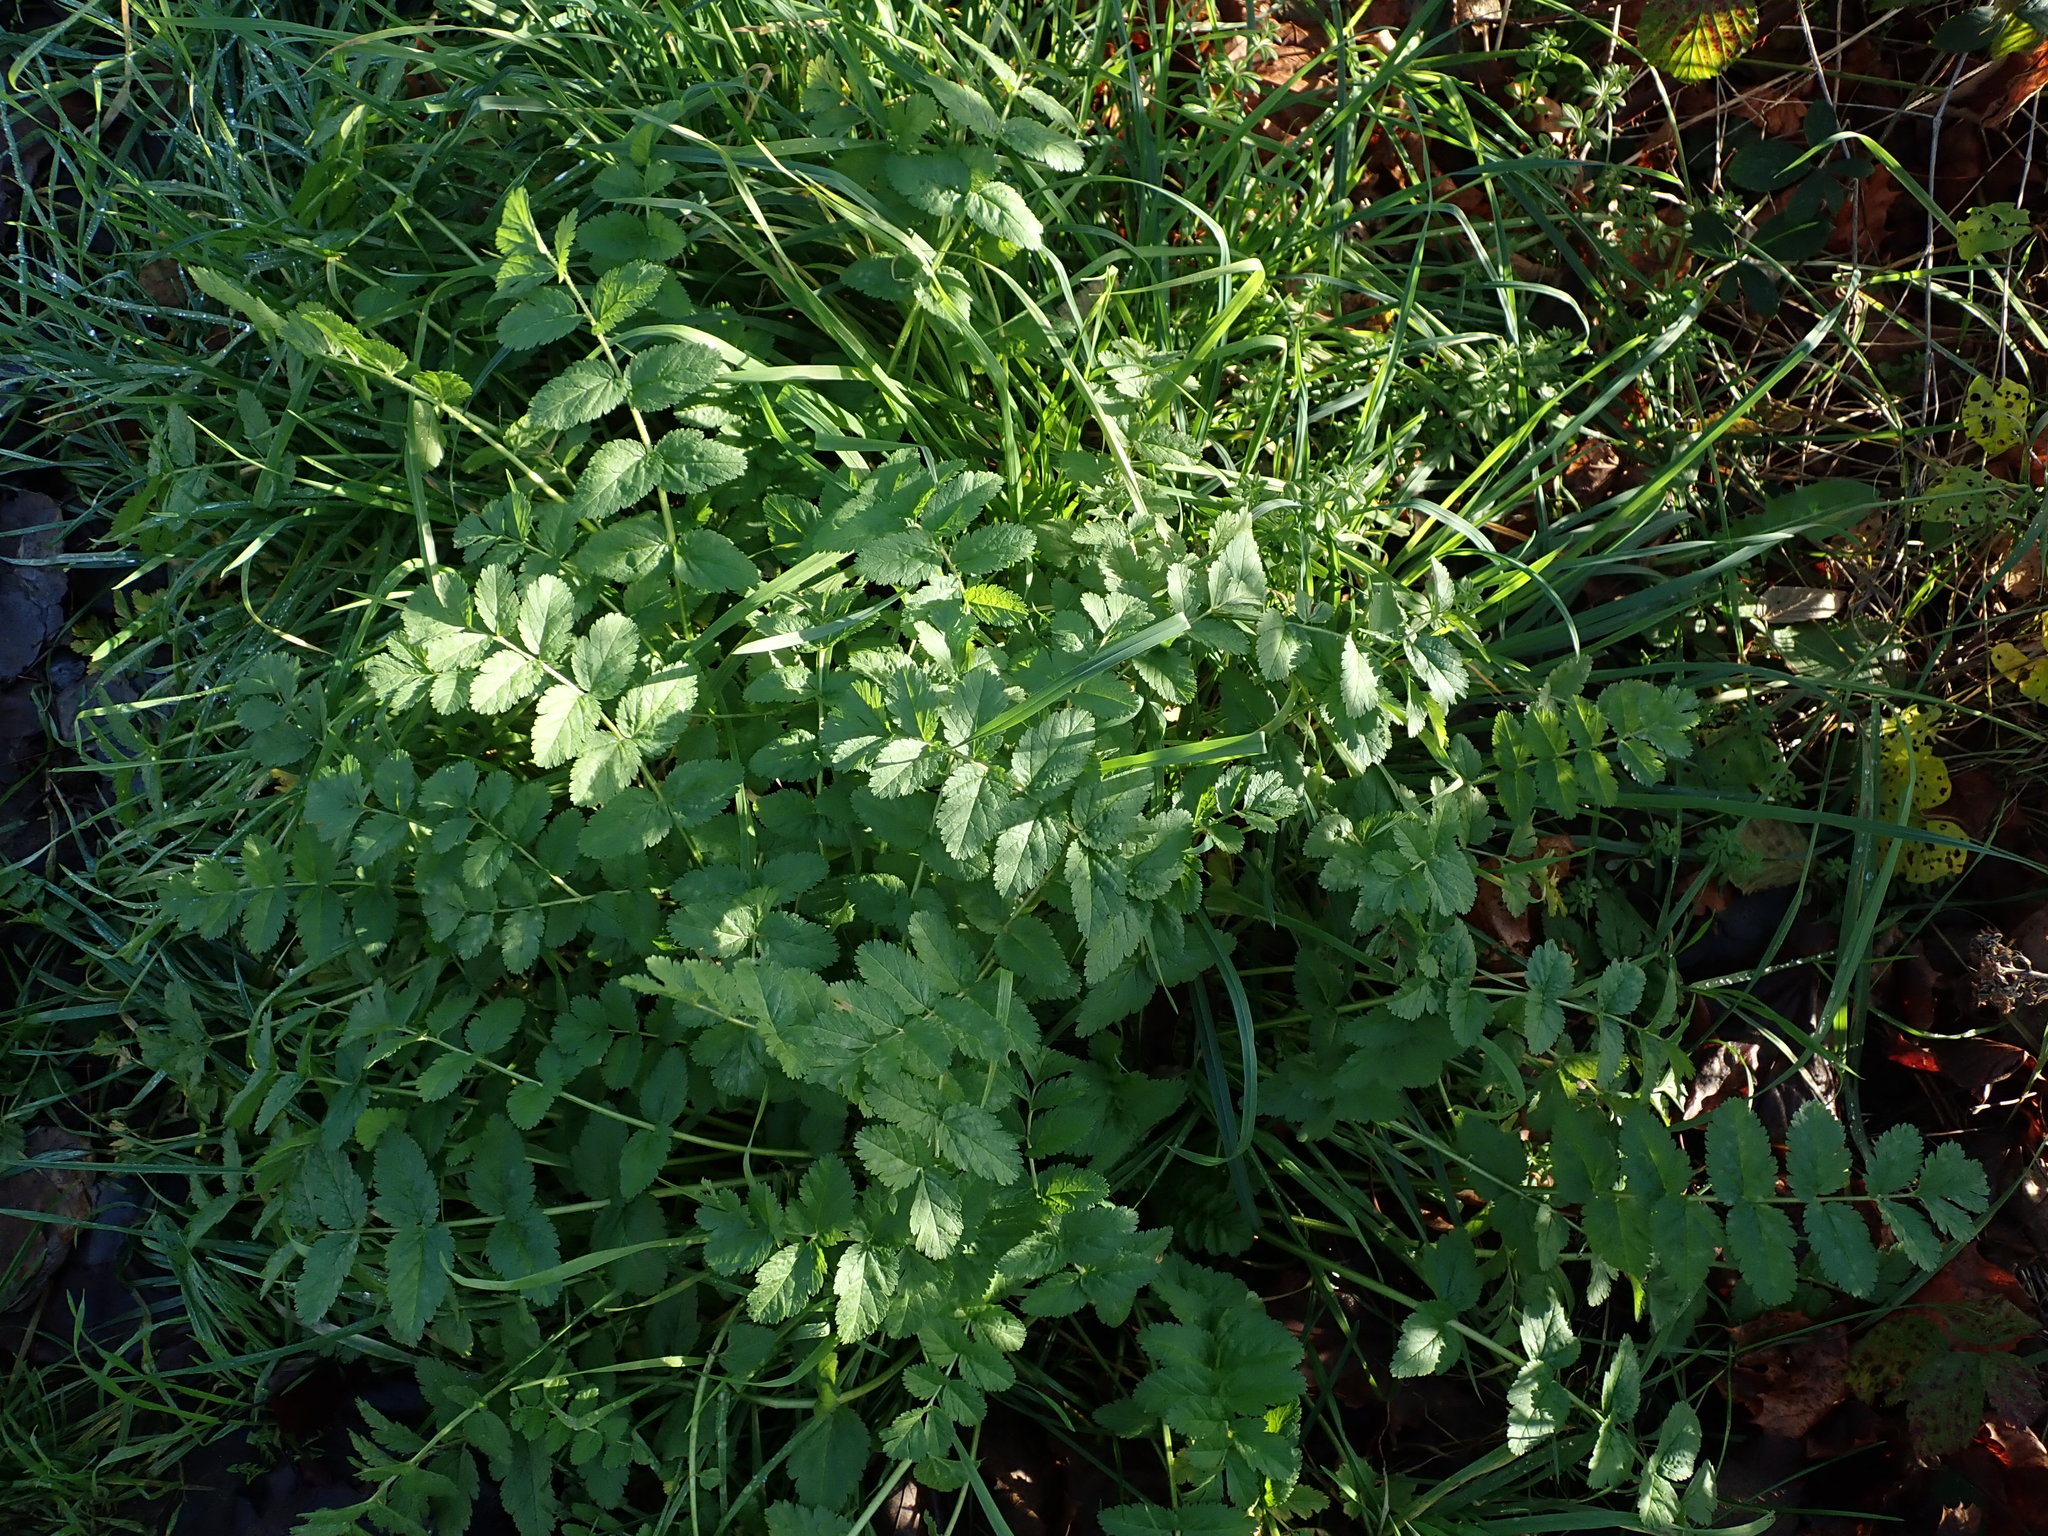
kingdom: Plantae
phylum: Tracheophyta
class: Magnoliopsida
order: Geraniales
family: Geraniaceae
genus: Erodium
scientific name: Erodium moschatum
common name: Musk stork's-bill
